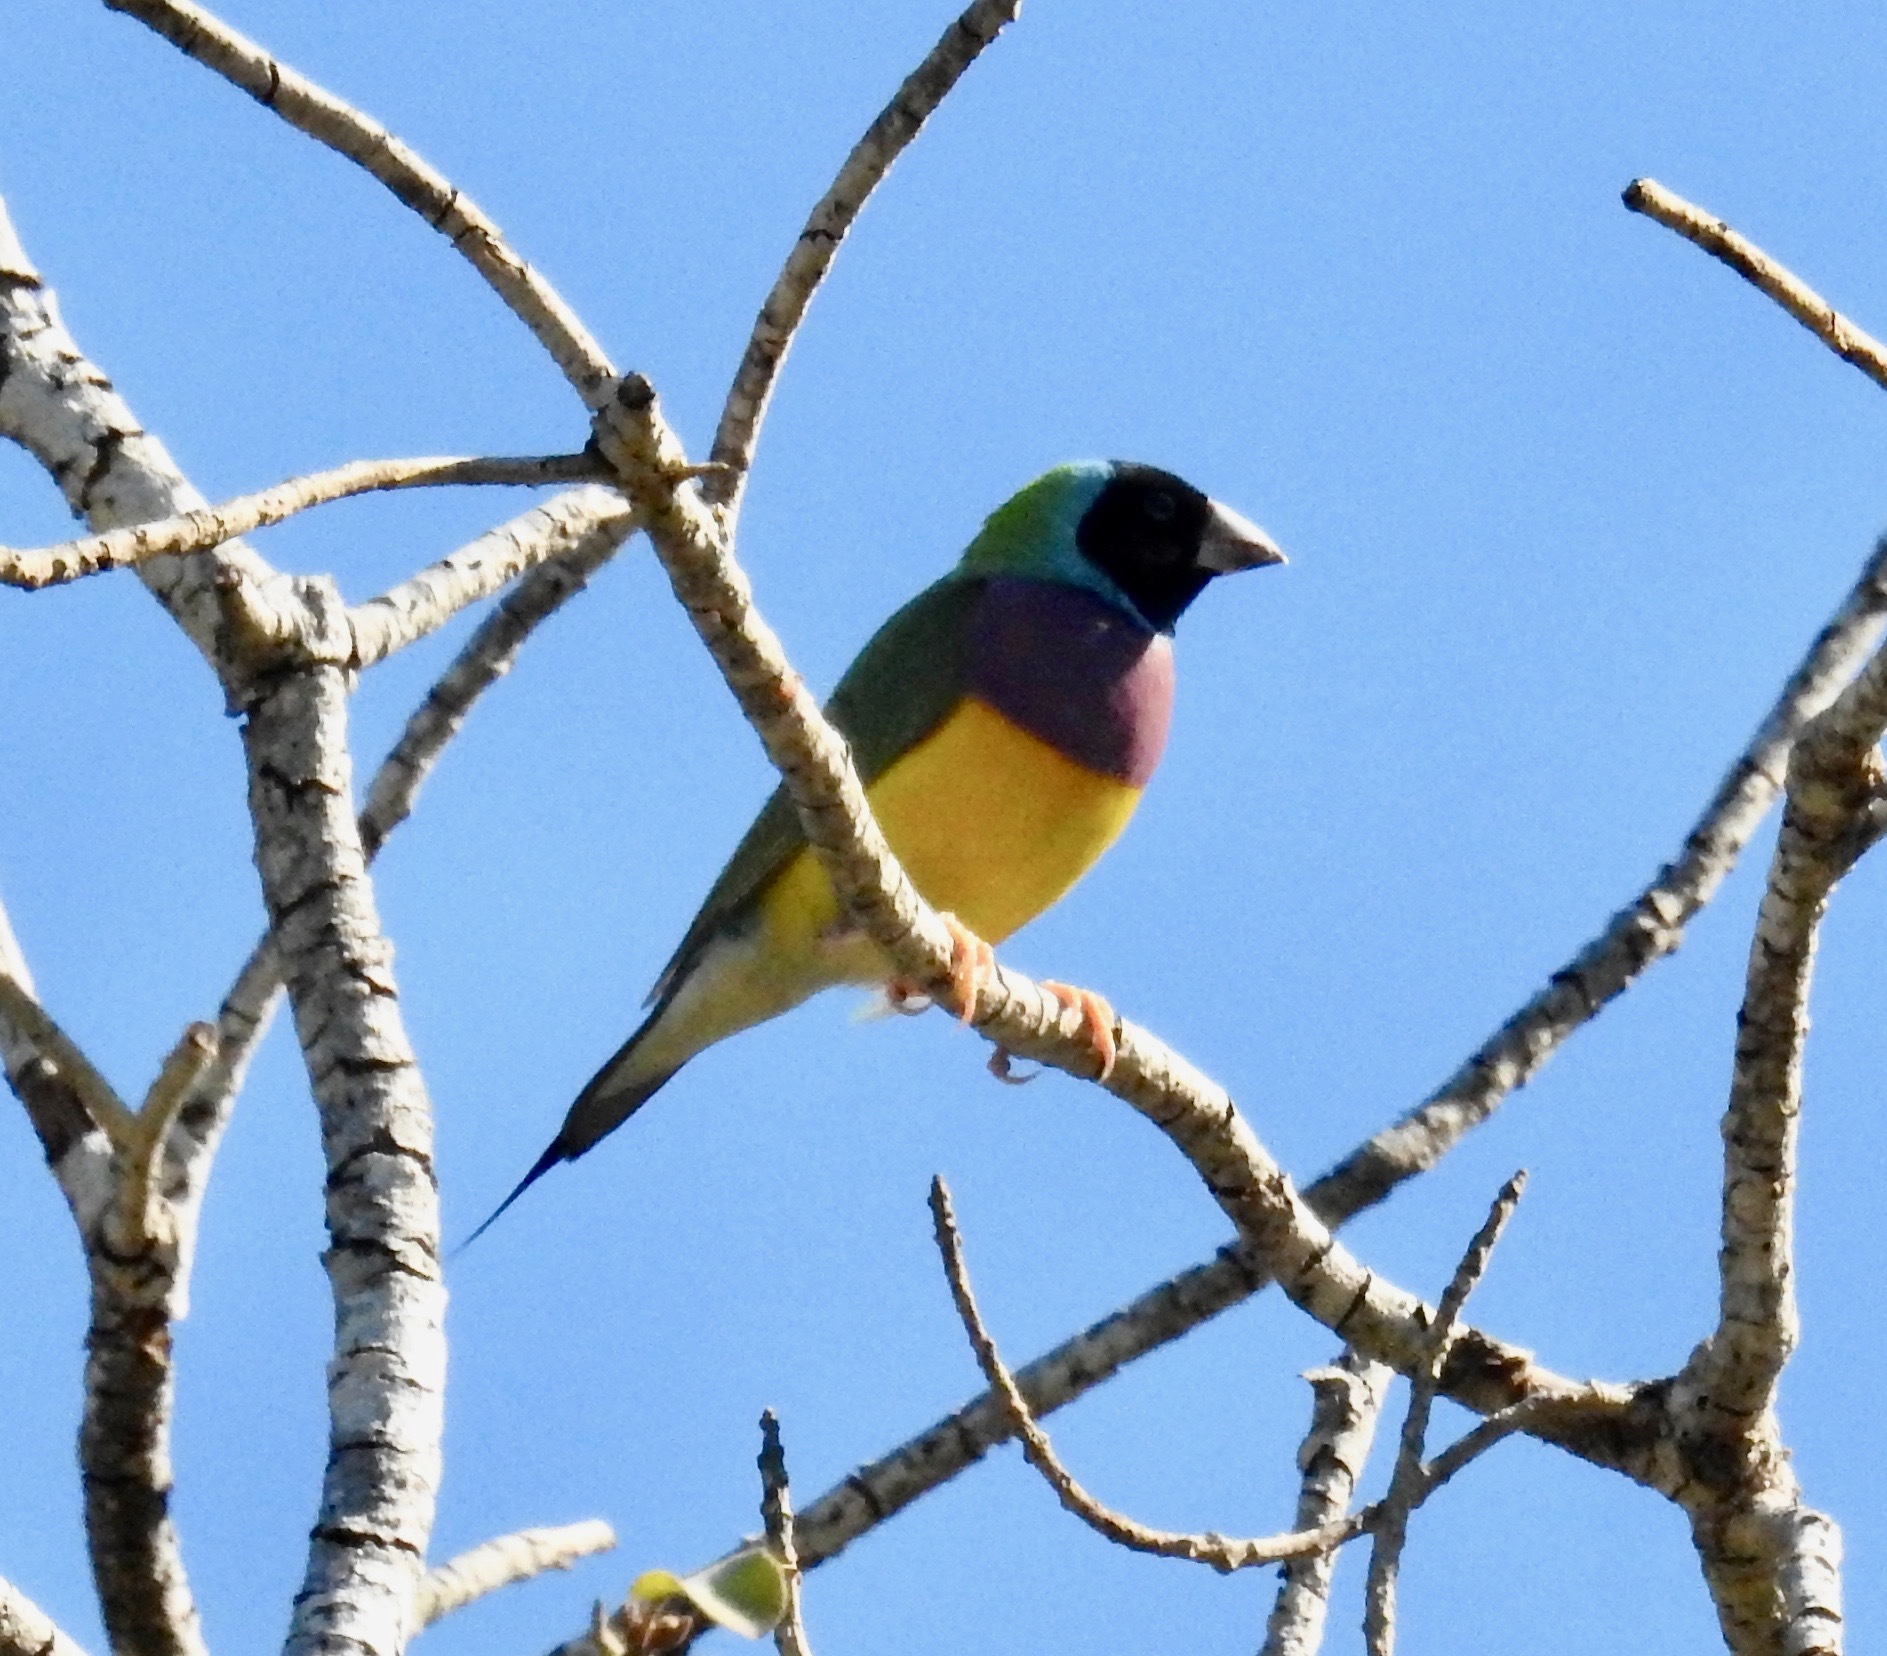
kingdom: Animalia
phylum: Chordata
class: Aves
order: Passeriformes
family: Estrildidae
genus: Erythrura
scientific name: Erythrura gouldiae
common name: Gouldian finch
